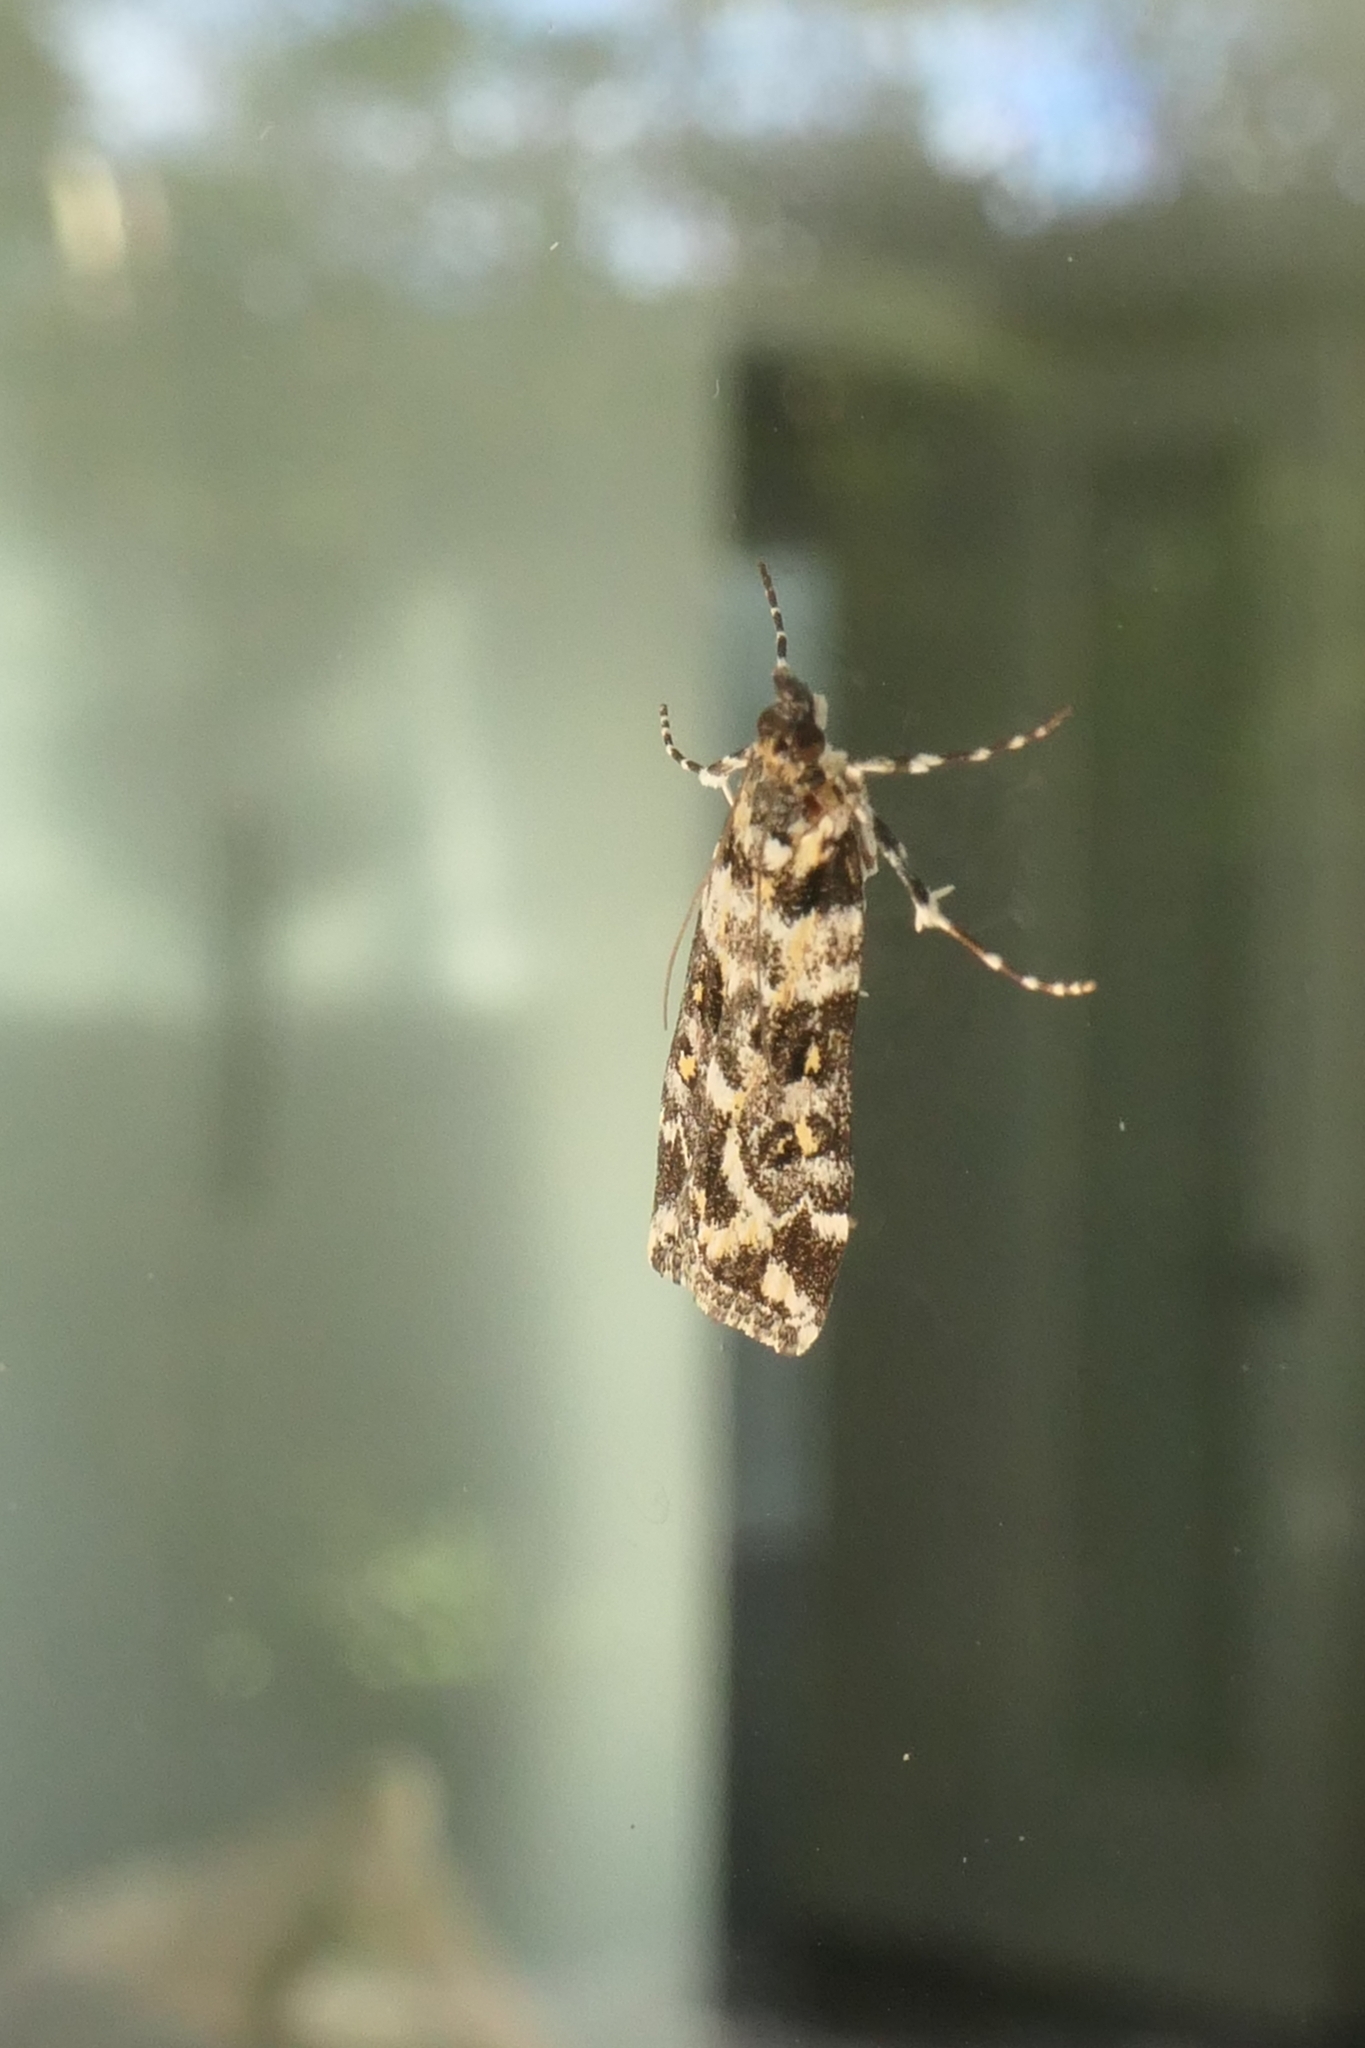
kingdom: Animalia
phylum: Arthropoda
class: Insecta
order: Lepidoptera
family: Crambidae
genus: Eudonia
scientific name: Eudonia diphtheralis
